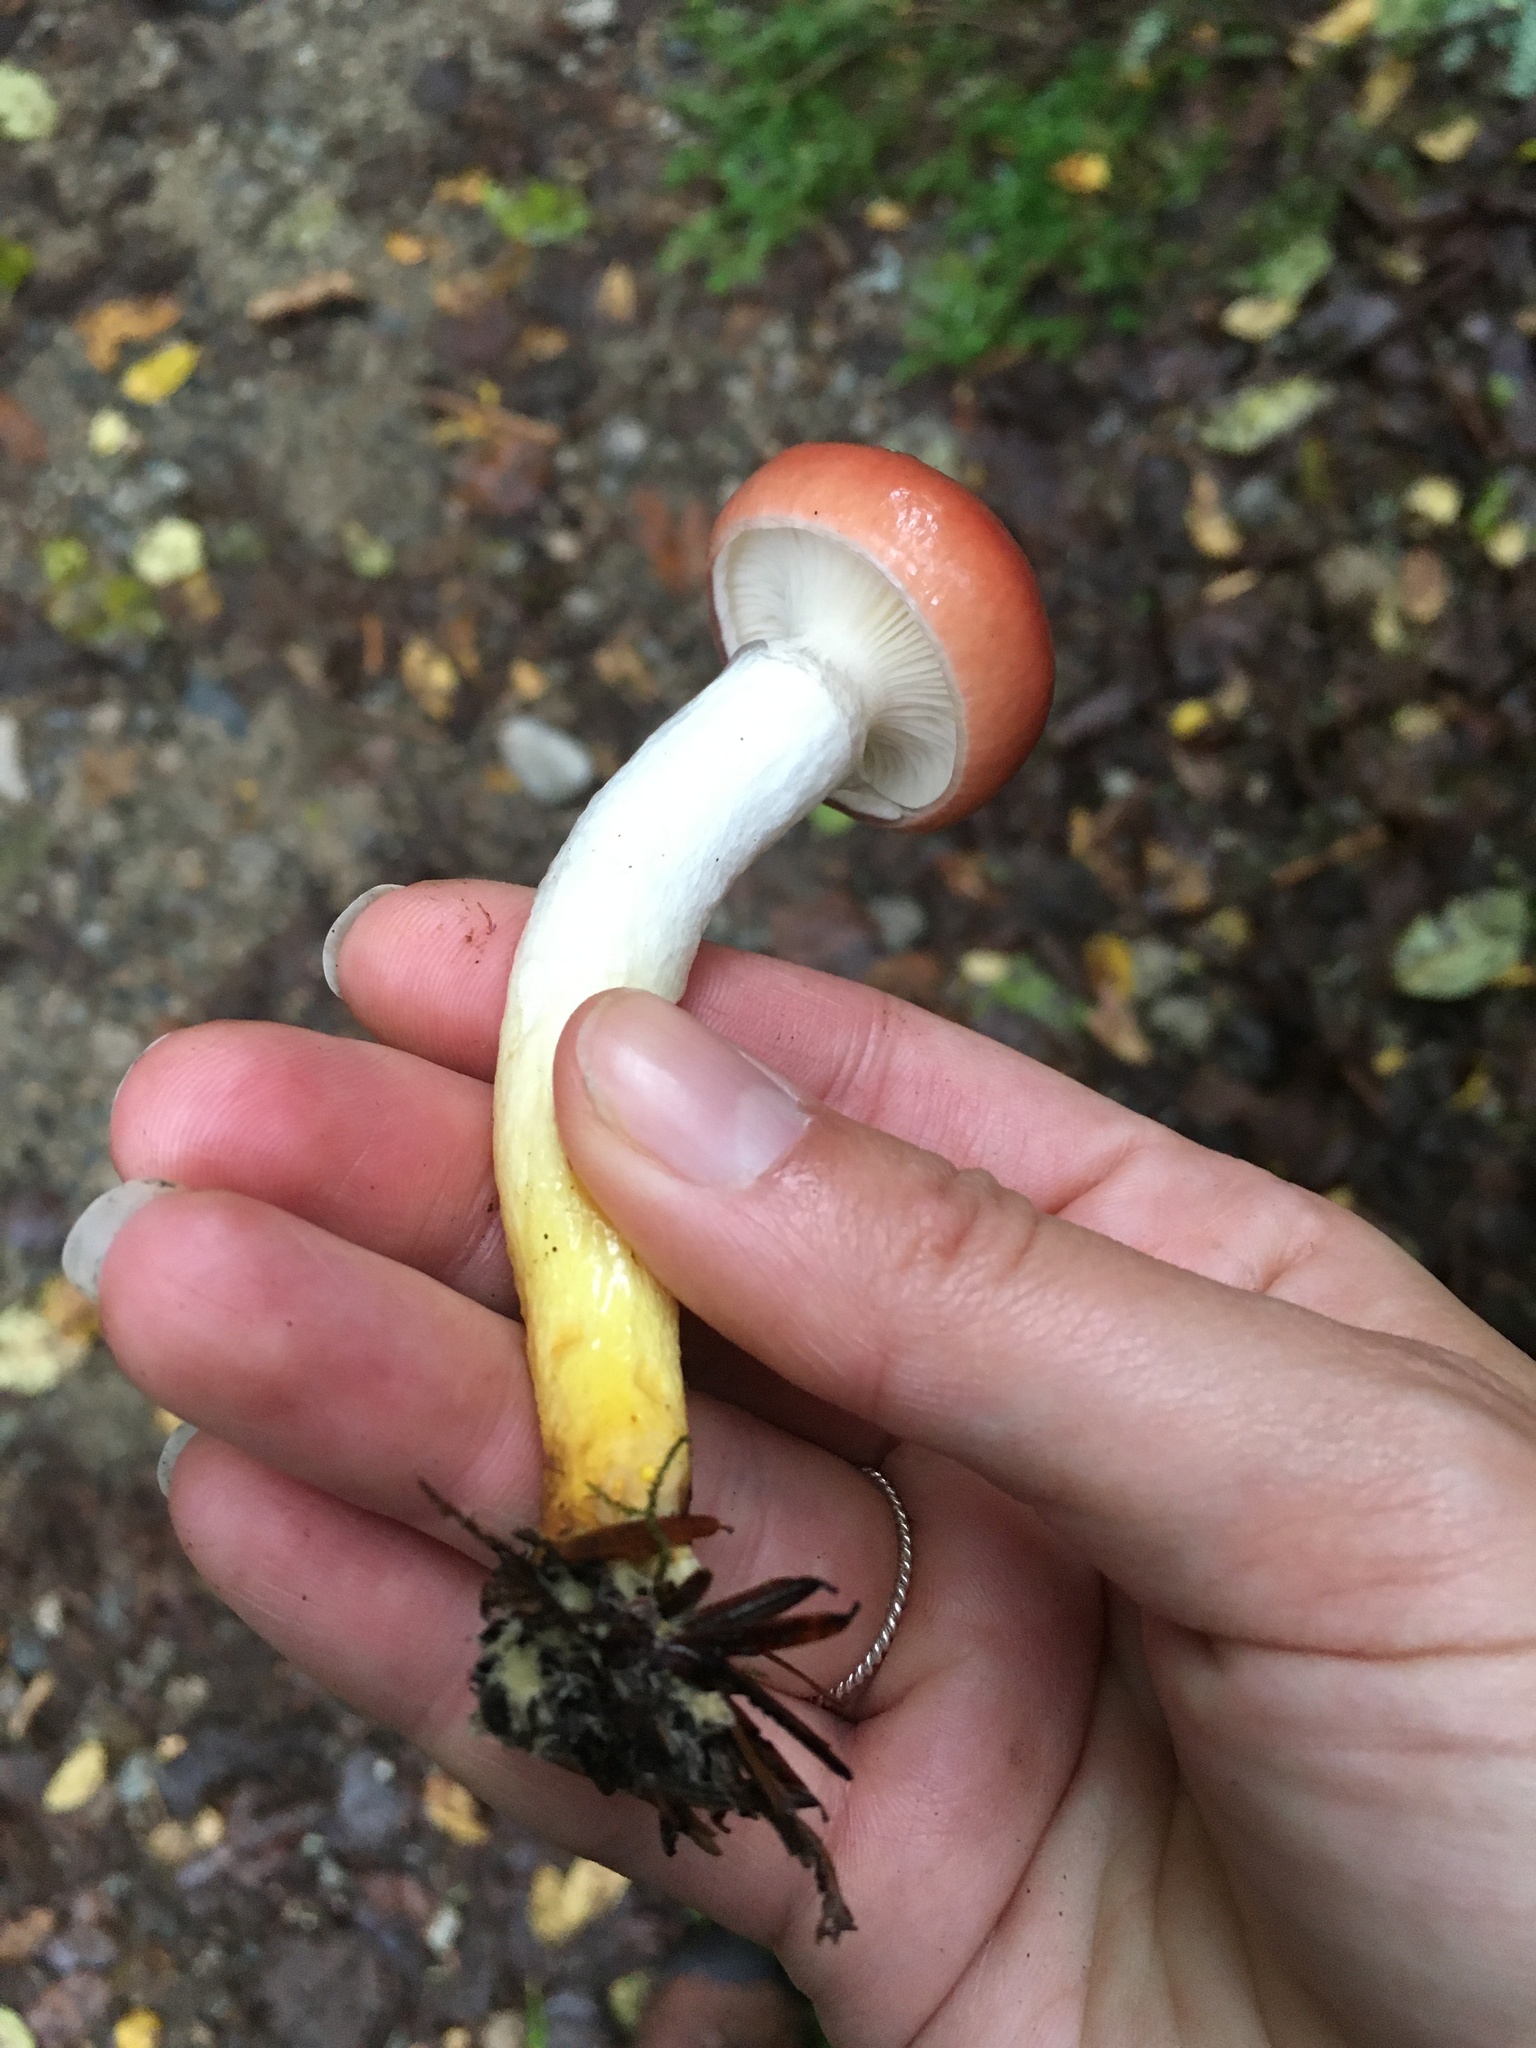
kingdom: Fungi
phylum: Basidiomycota
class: Agaricomycetes
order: Boletales
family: Gomphidiaceae
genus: Gomphidius
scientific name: Gomphidius subroseus
